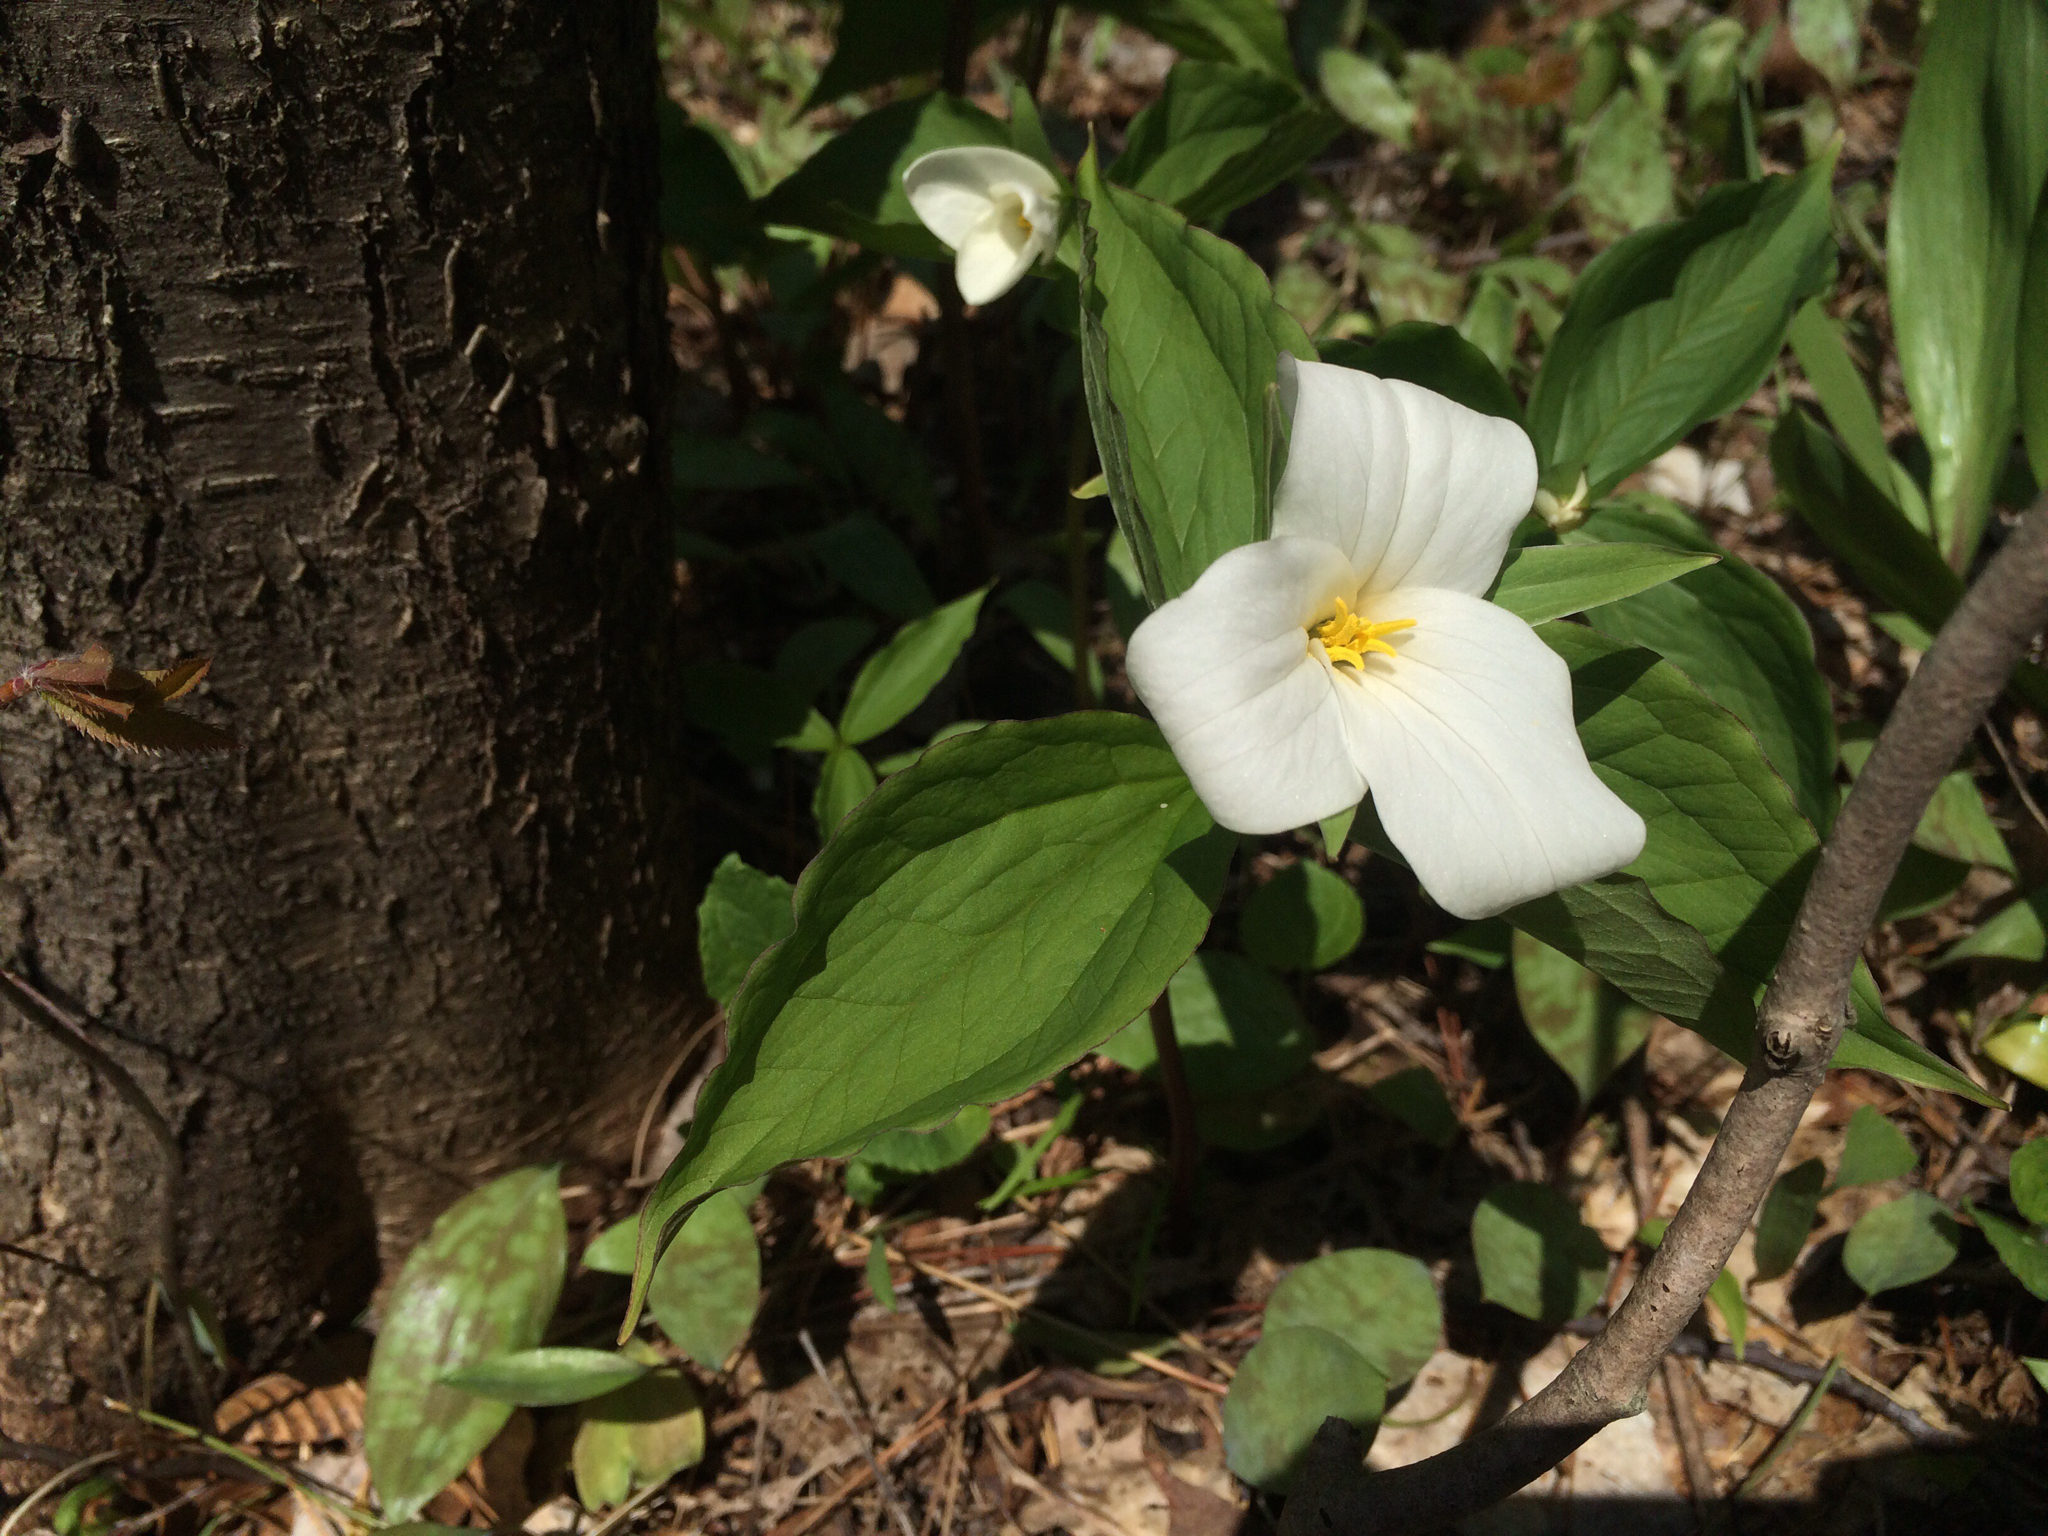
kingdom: Plantae
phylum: Tracheophyta
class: Liliopsida
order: Liliales
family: Melanthiaceae
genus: Trillium
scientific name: Trillium grandiflorum
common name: Great white trillium
